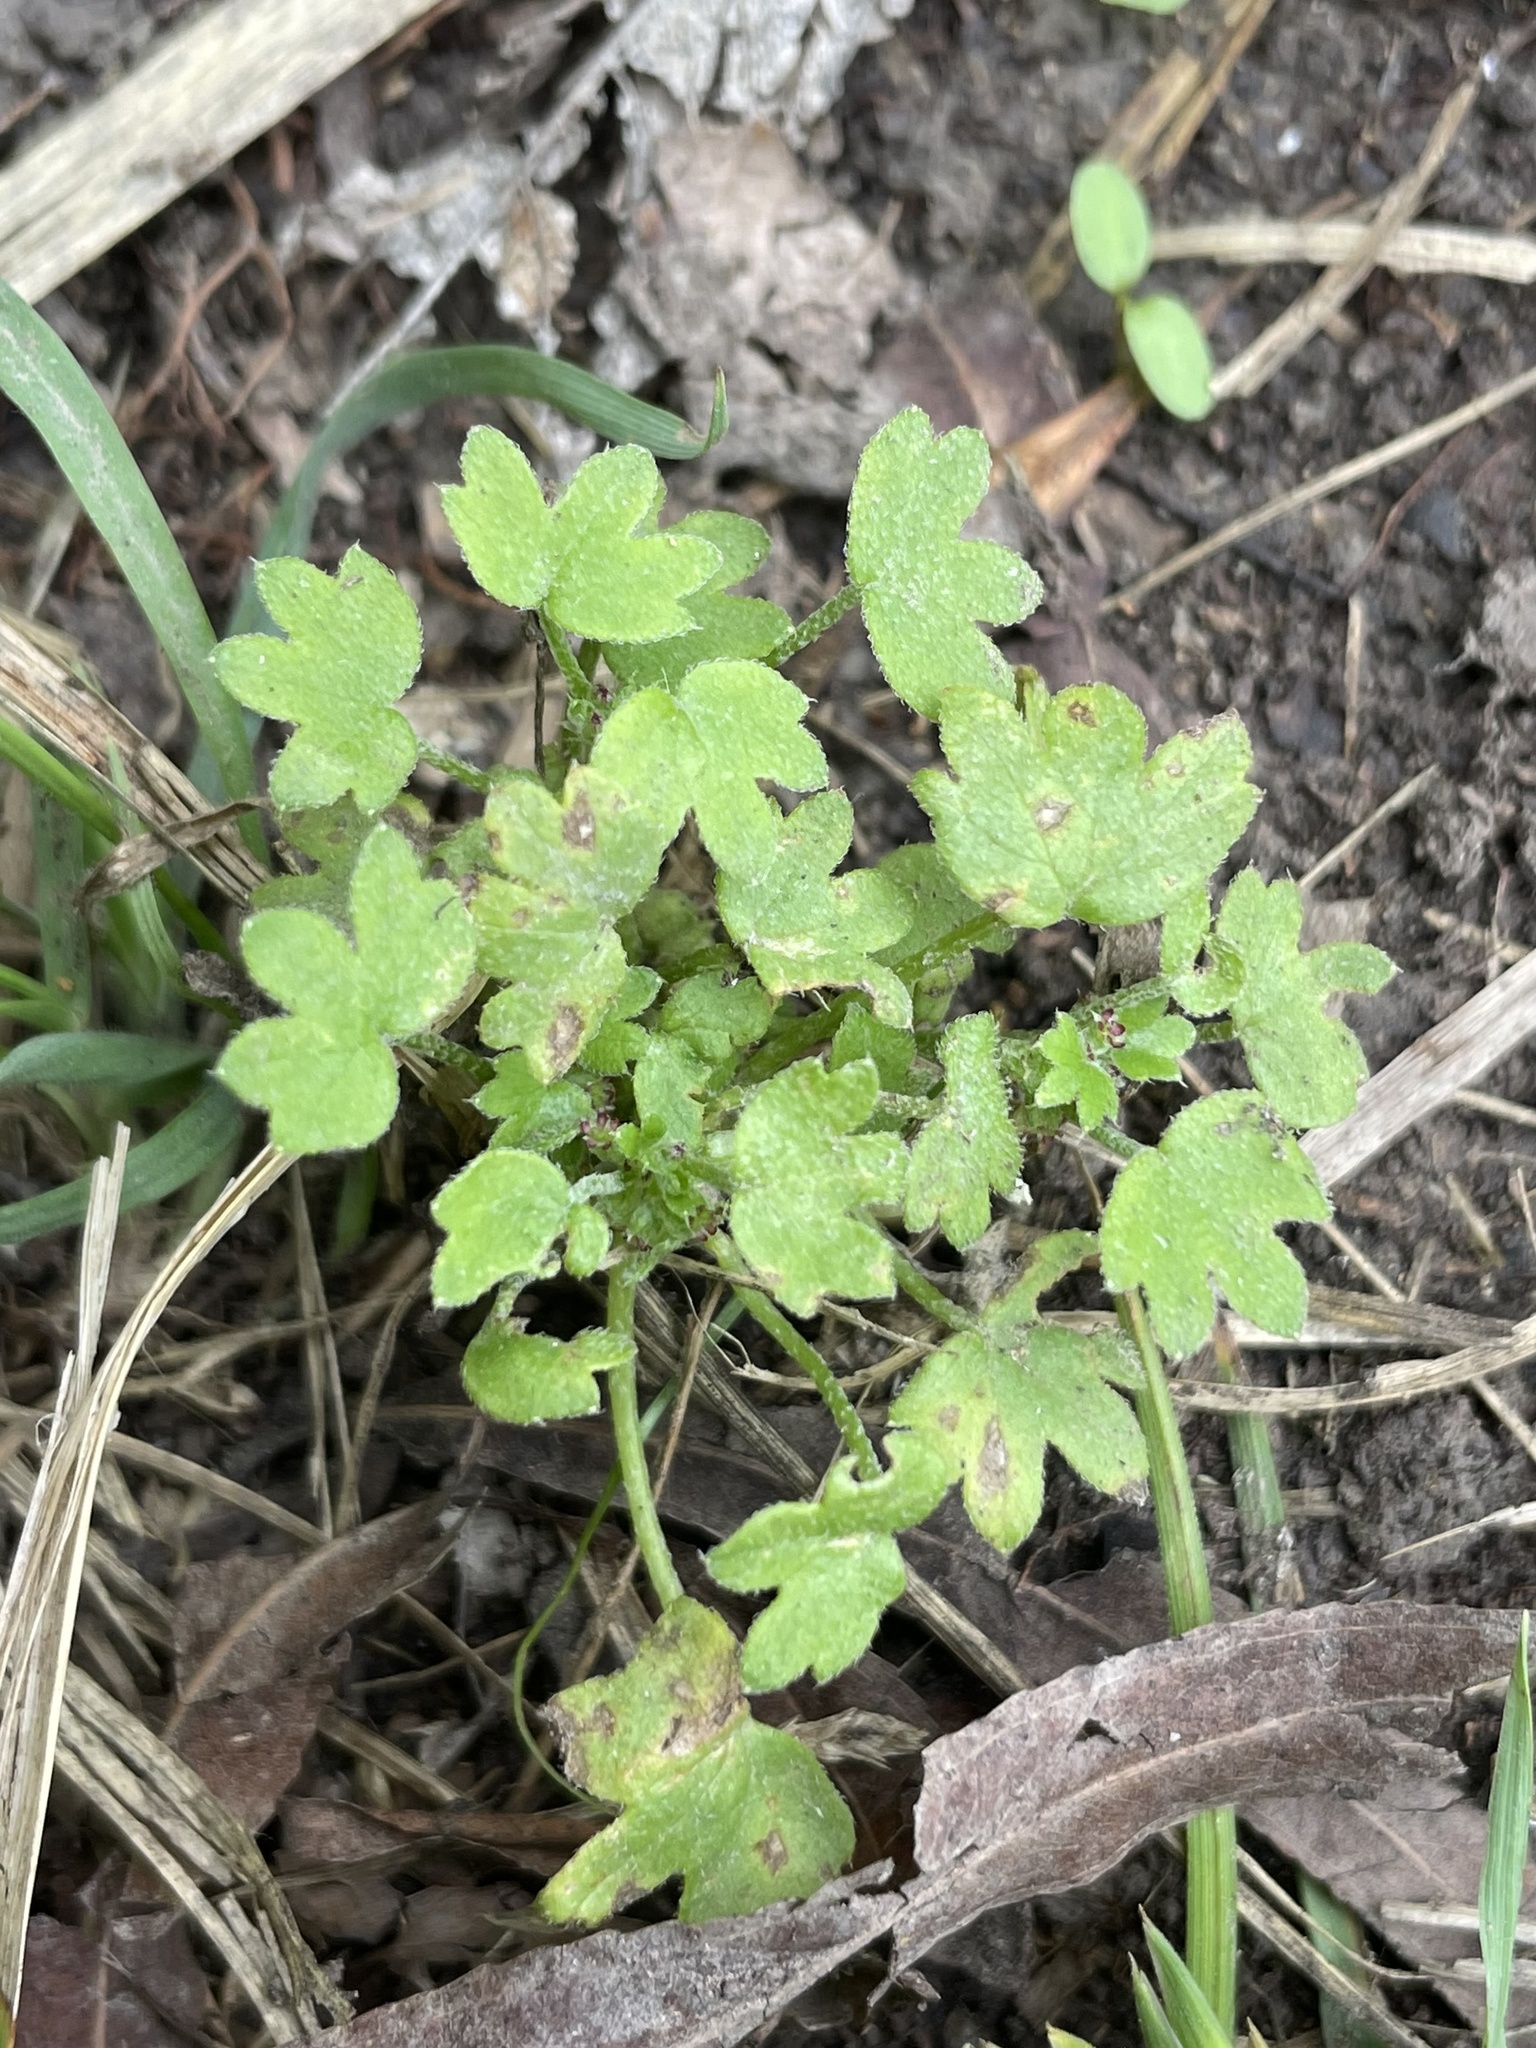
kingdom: Plantae
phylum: Tracheophyta
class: Magnoliopsida
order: Apiales
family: Apiaceae
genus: Bowlesia
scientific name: Bowlesia incana
